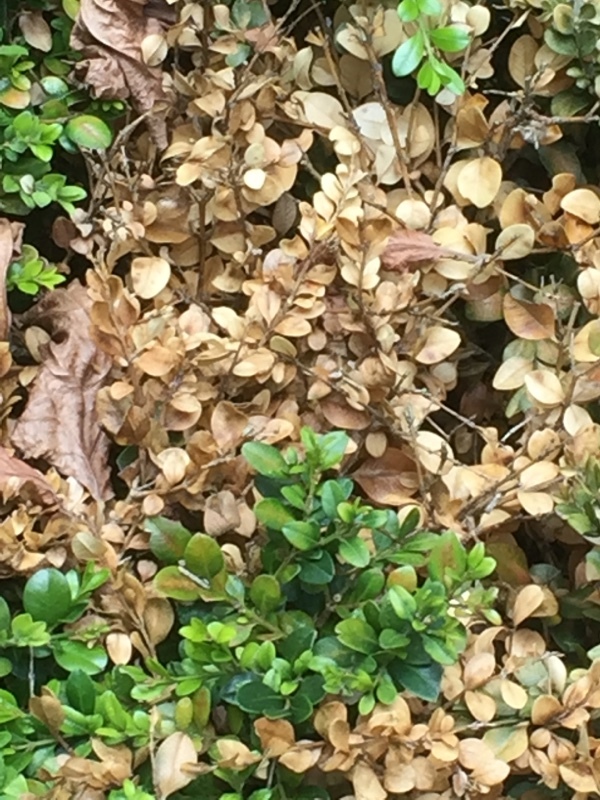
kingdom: Animalia
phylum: Arthropoda
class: Insecta
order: Lepidoptera
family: Crambidae
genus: Cydalima
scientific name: Cydalima perspectalis
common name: Box tree moth
